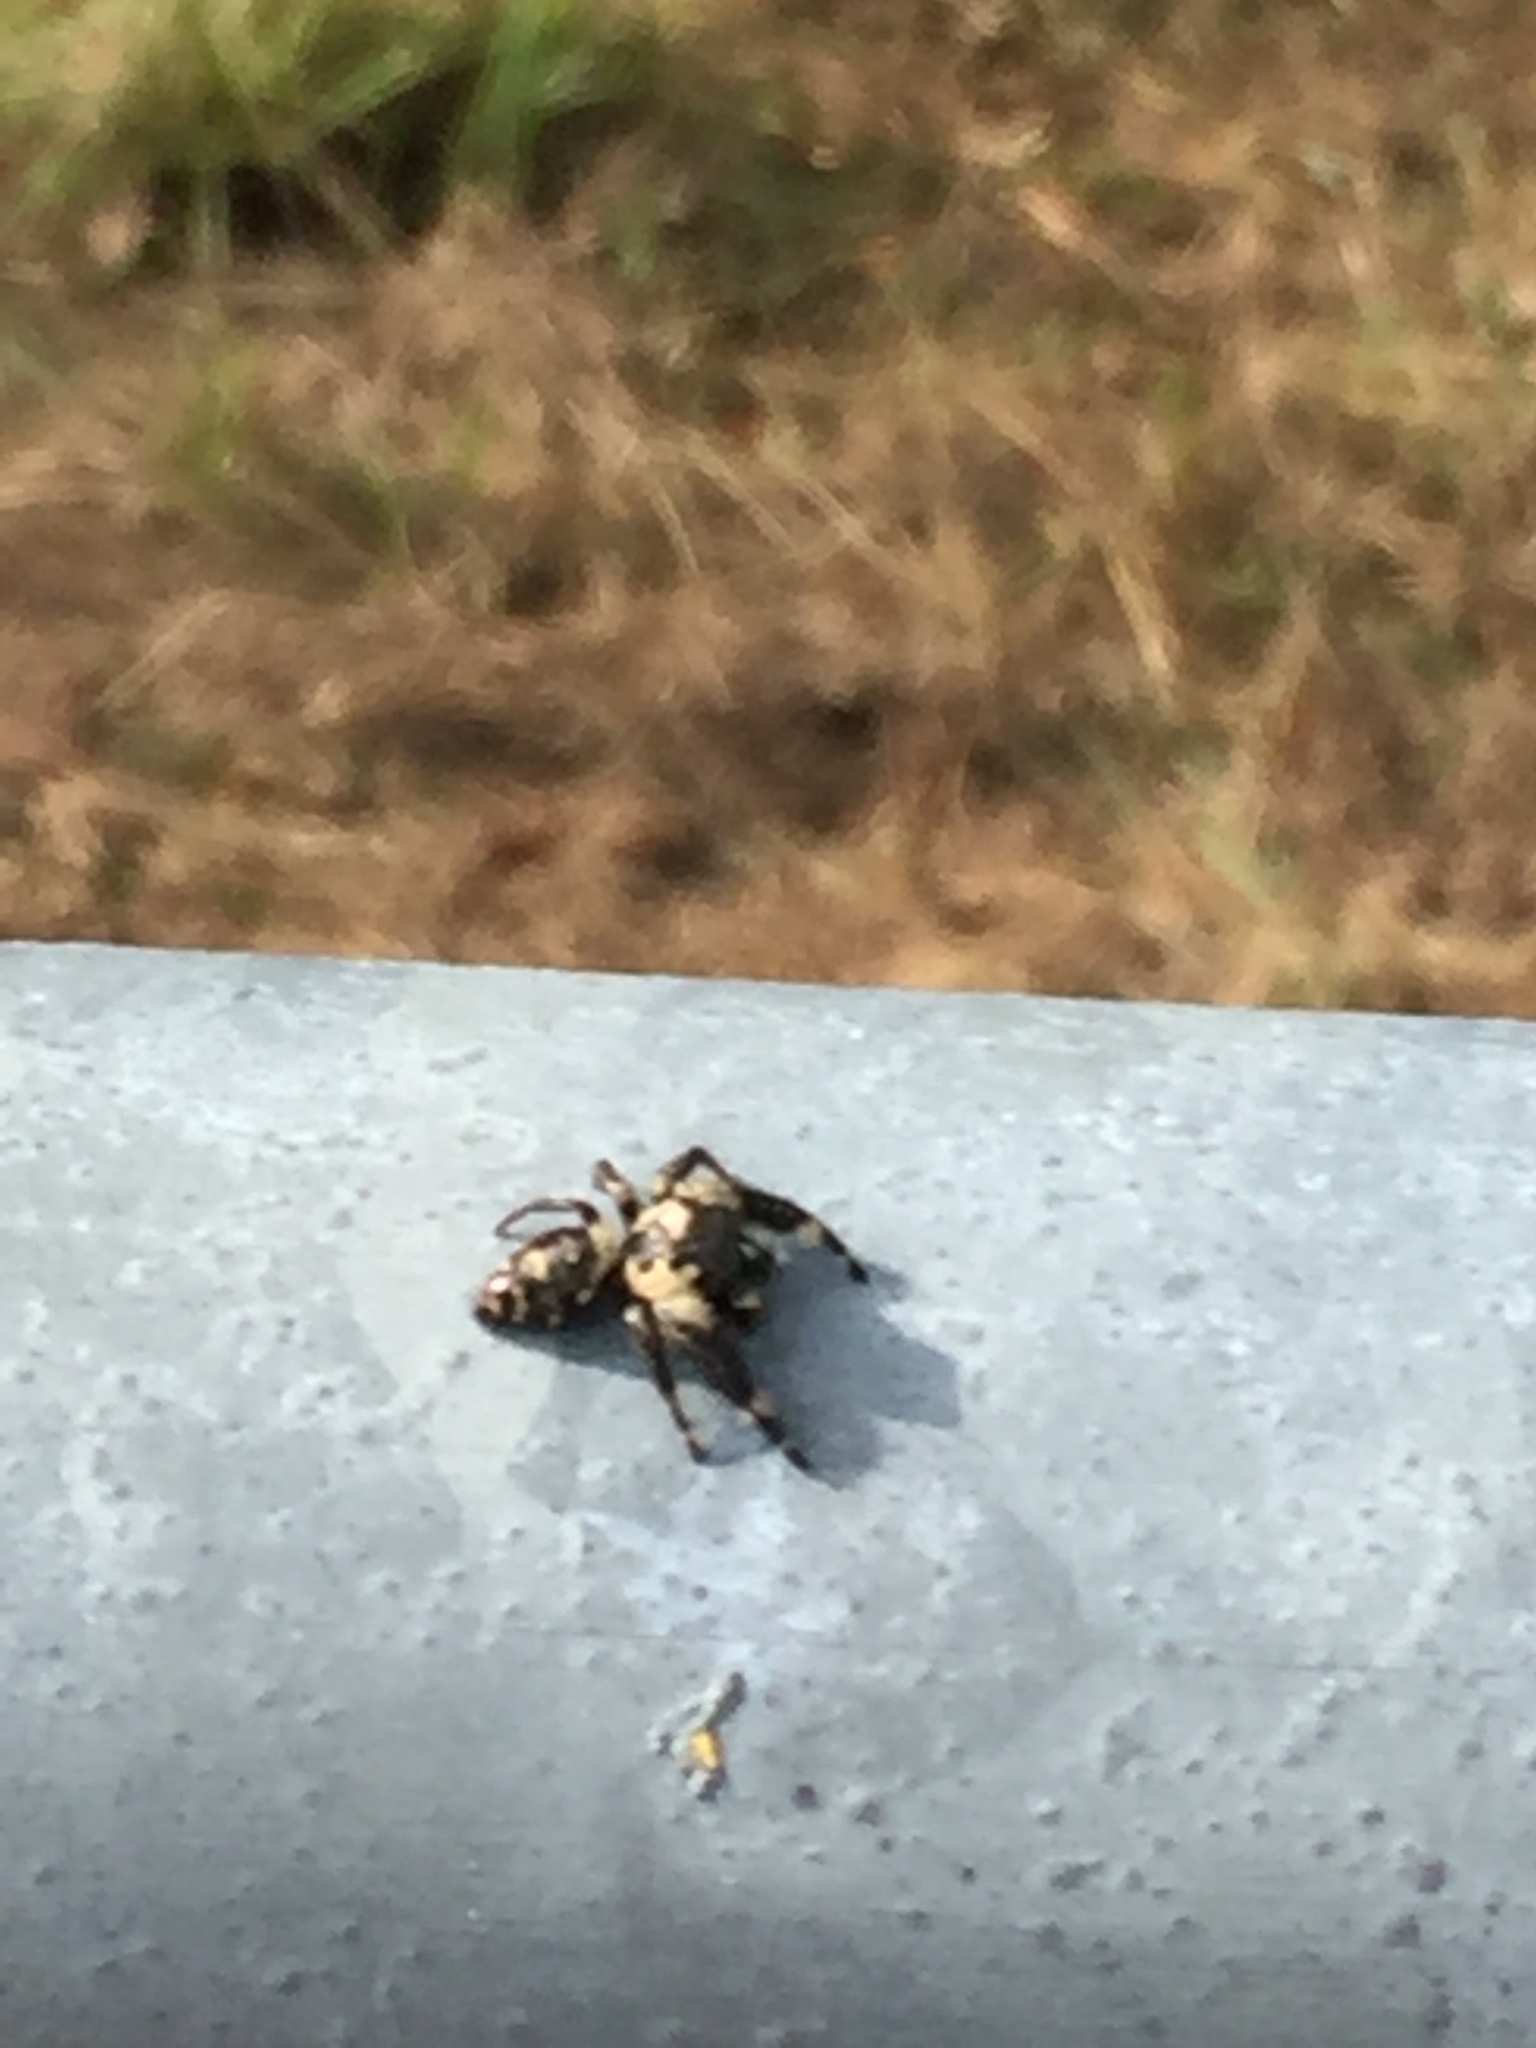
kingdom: Animalia
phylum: Arthropoda
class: Arachnida
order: Araneae
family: Salticidae
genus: Phidippus
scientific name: Phidippus otiosus
